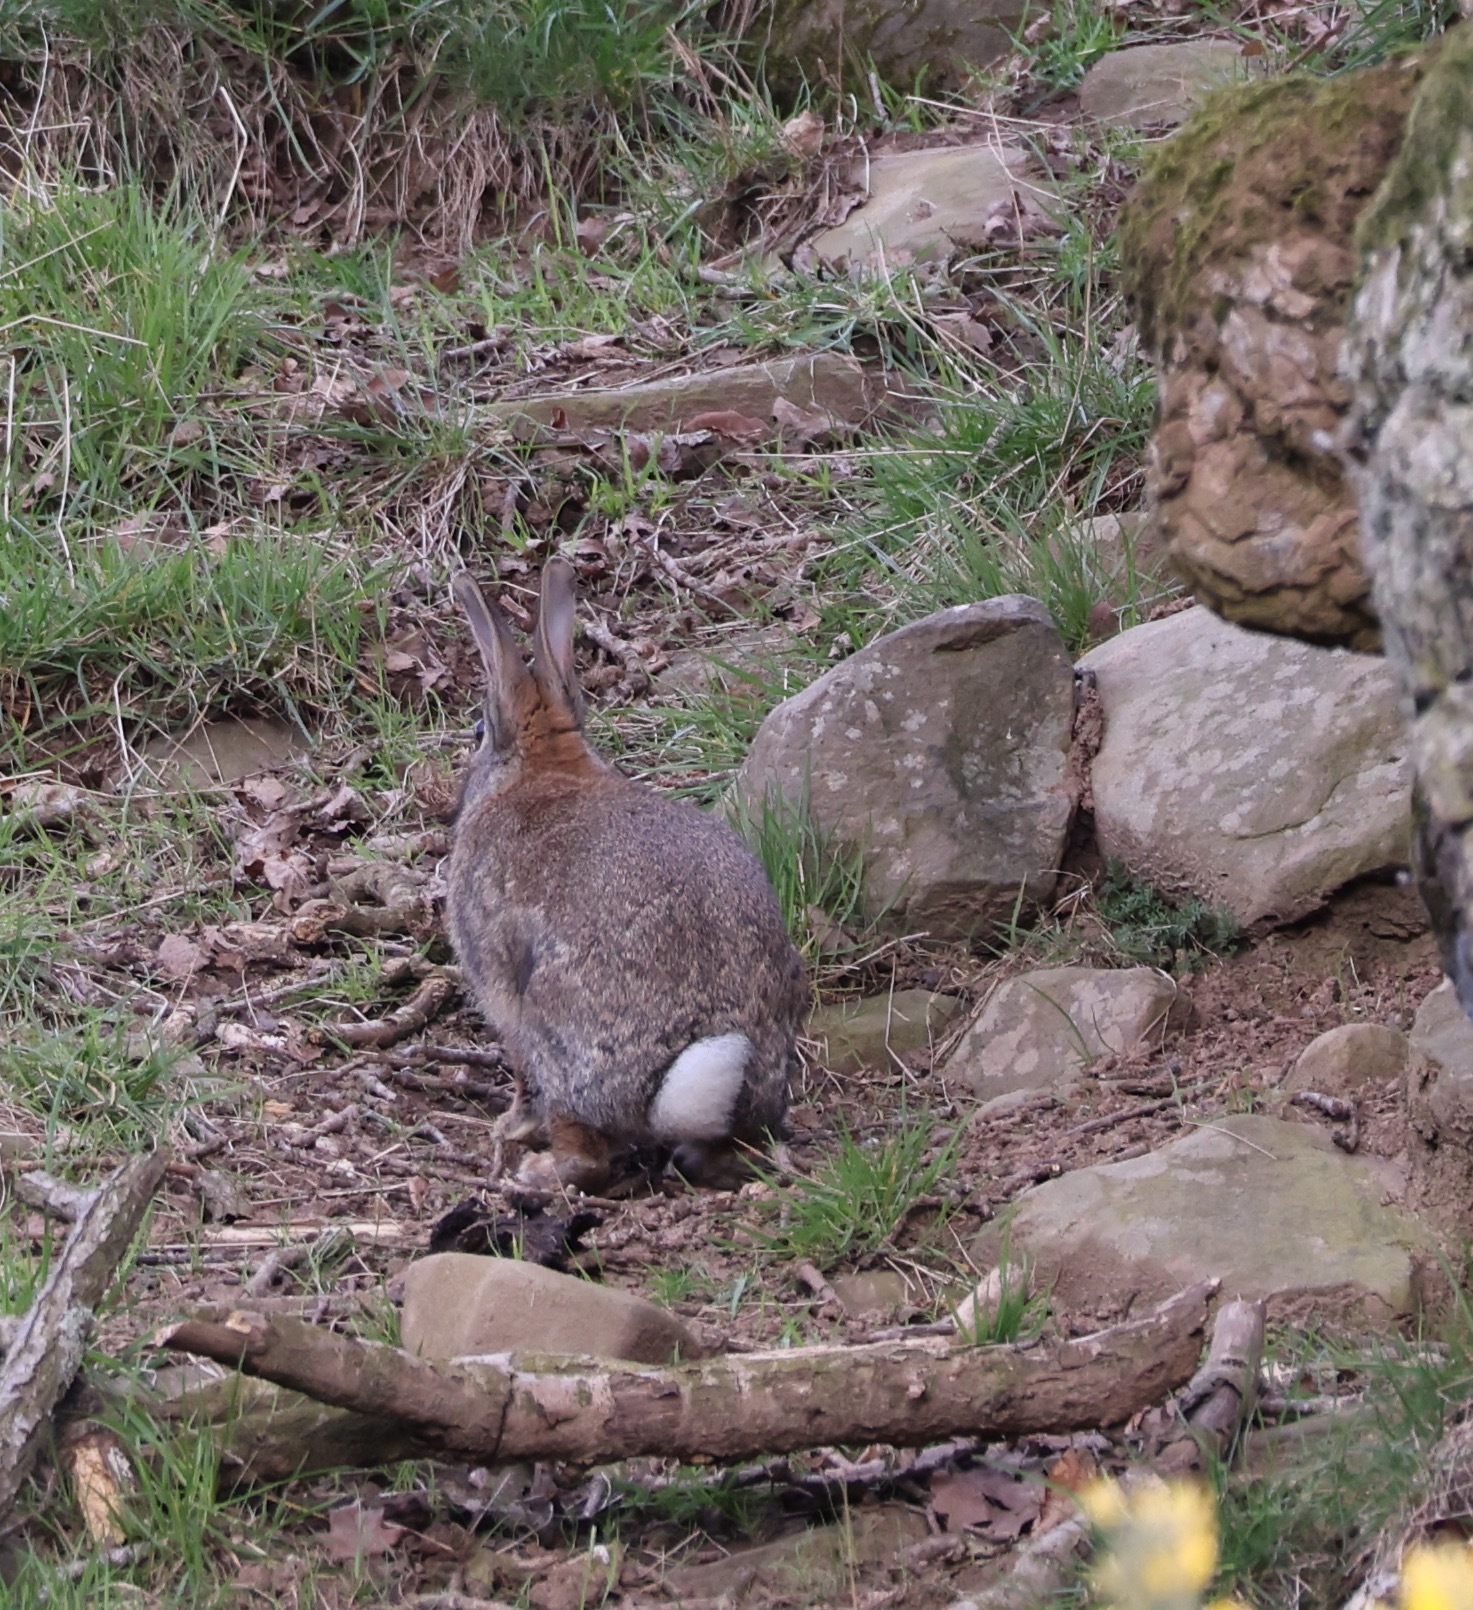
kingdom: Animalia
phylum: Chordata
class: Mammalia
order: Lagomorpha
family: Leporidae
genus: Oryctolagus
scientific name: Oryctolagus cuniculus
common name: European rabbit
